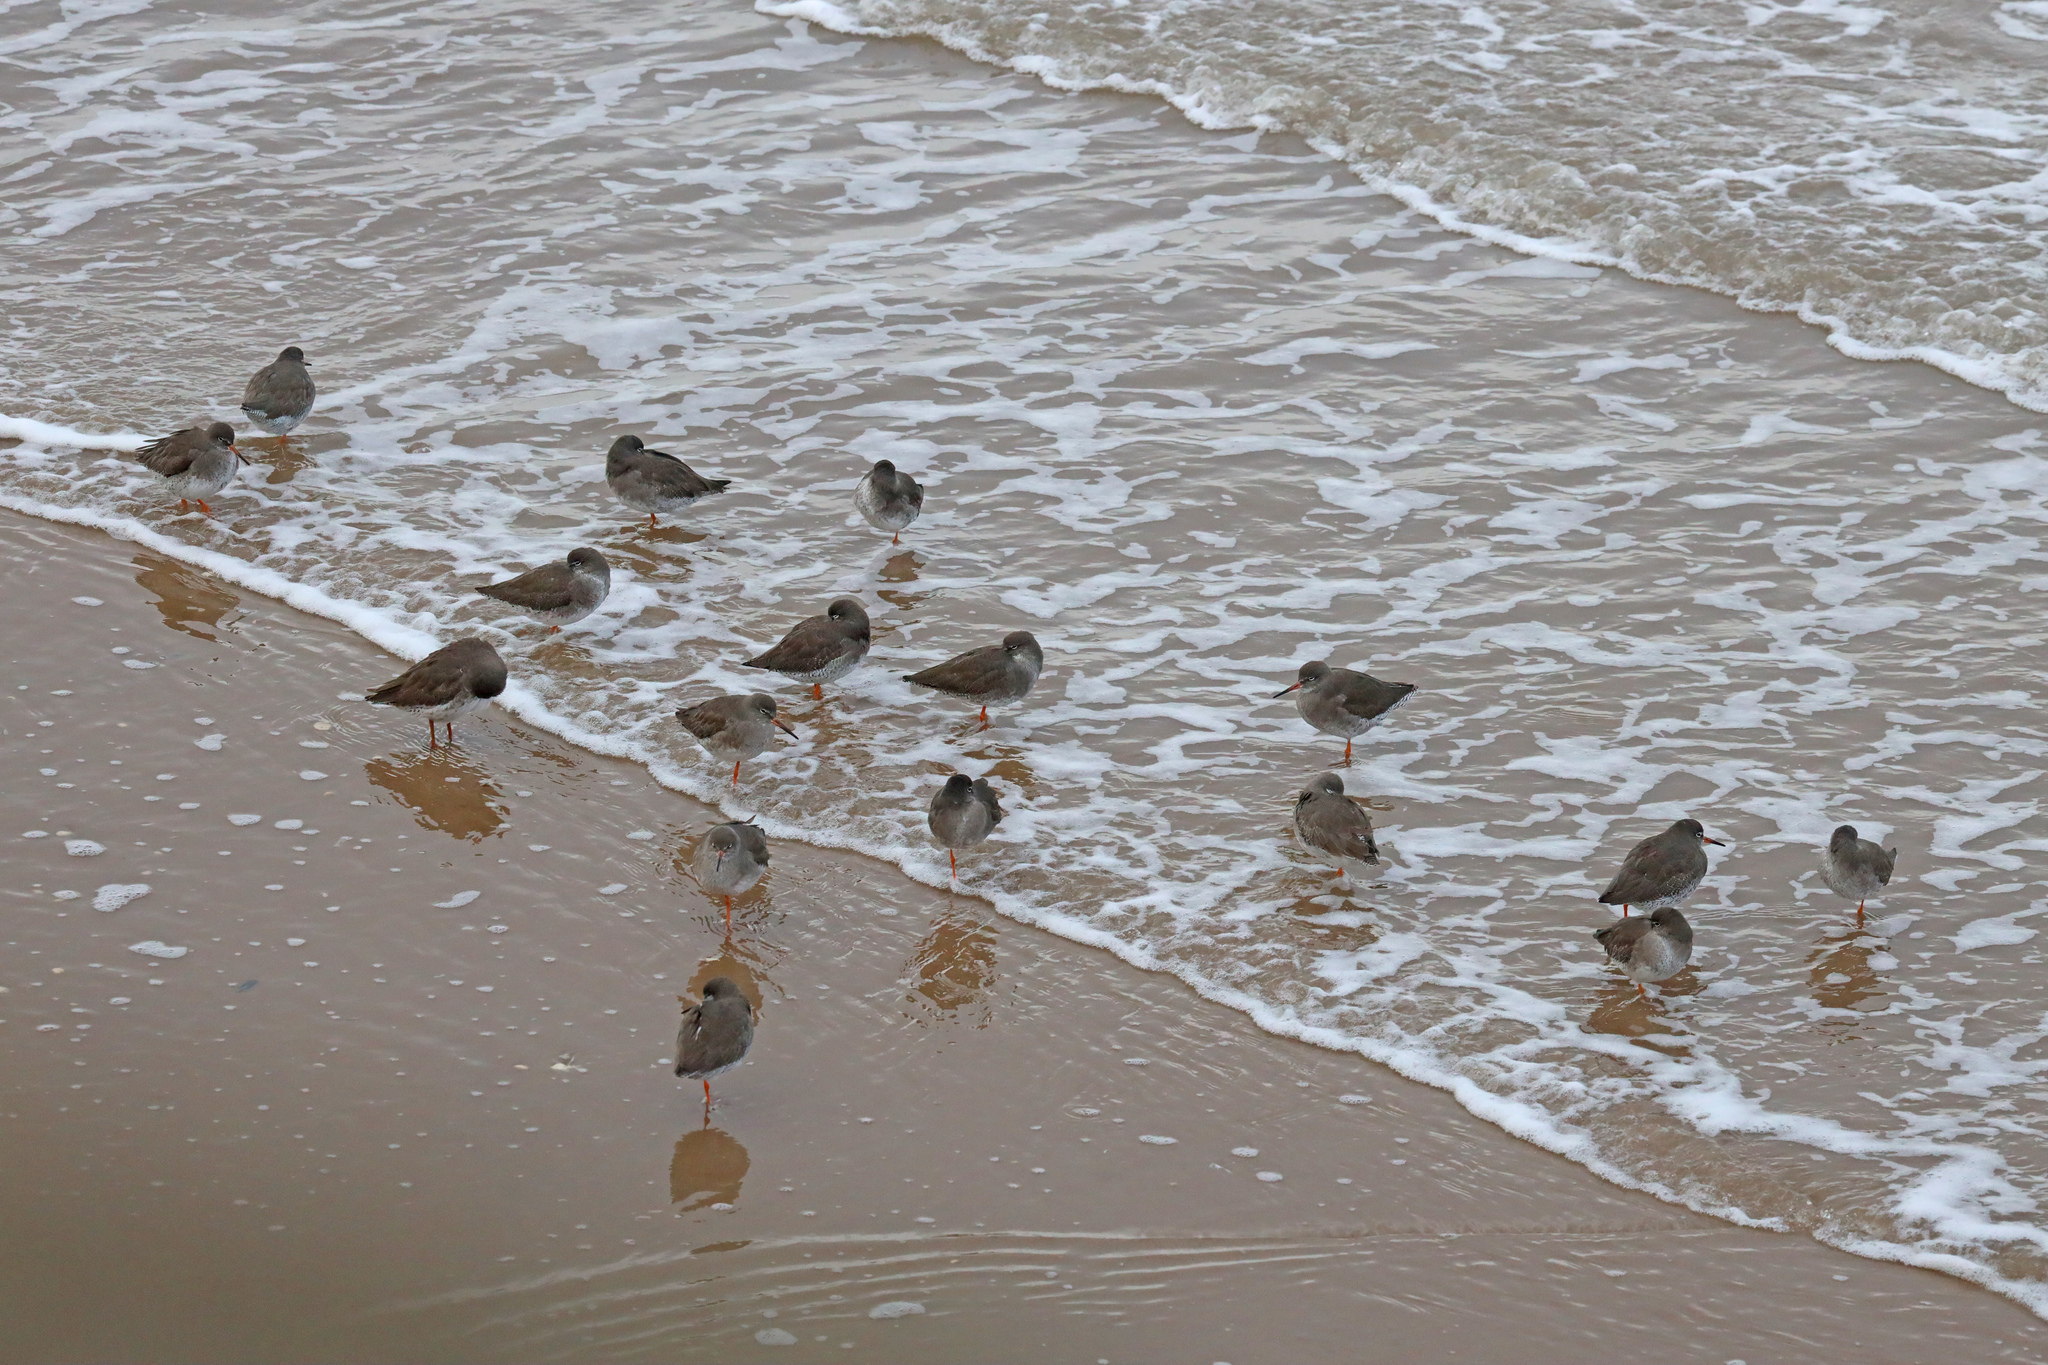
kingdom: Animalia
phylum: Chordata
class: Aves
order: Charadriiformes
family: Scolopacidae
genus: Tringa
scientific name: Tringa totanus
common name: Common redshank
